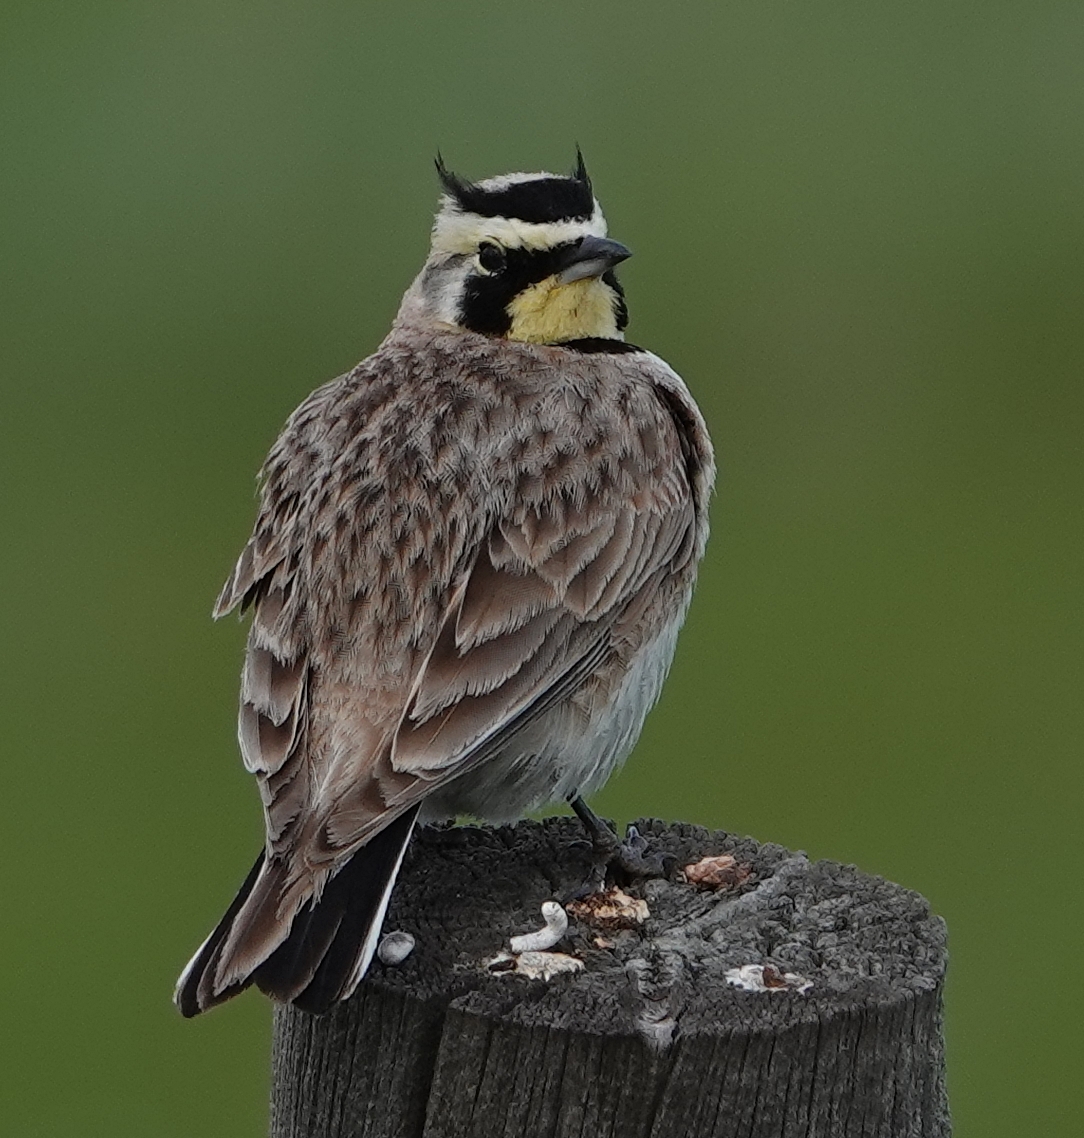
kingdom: Animalia
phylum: Chordata
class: Aves
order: Passeriformes
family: Alaudidae
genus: Eremophila
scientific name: Eremophila alpestris
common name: Horned lark
